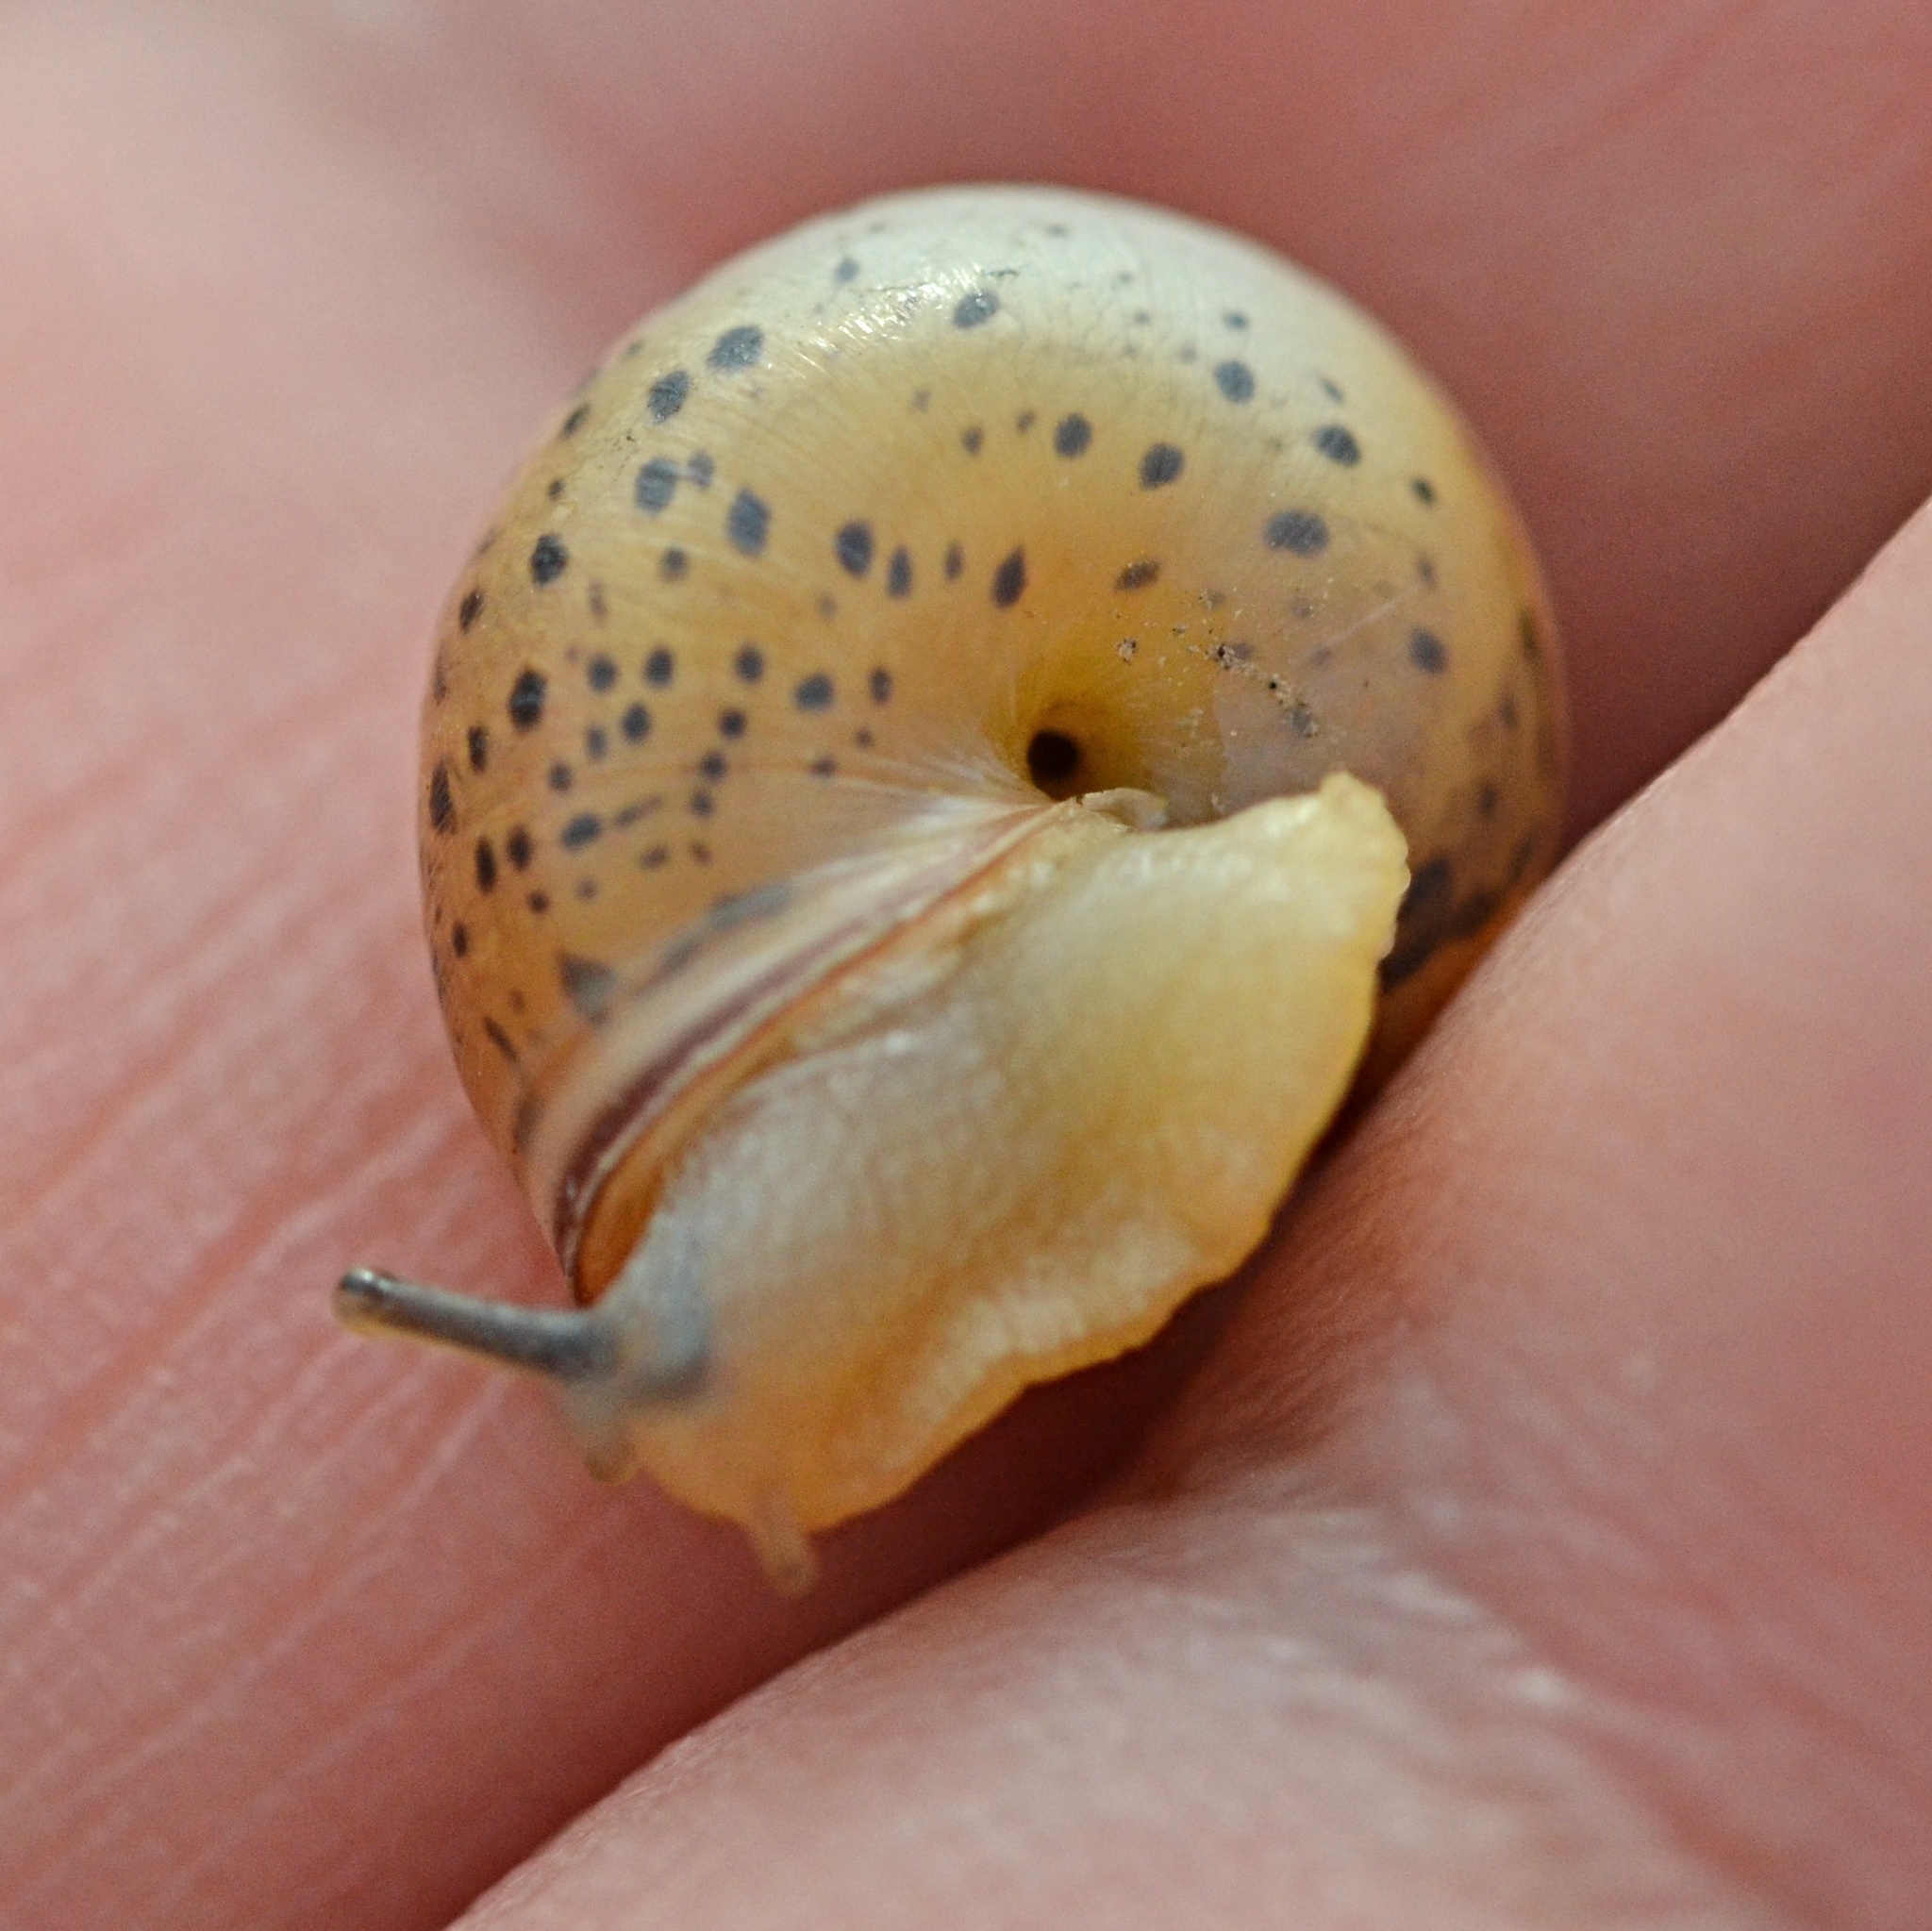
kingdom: Animalia
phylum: Mollusca
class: Gastropoda
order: Stylommatophora
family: Hygromiidae
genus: Monacha
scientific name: Monacha cartusiana
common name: Carthusian snail
